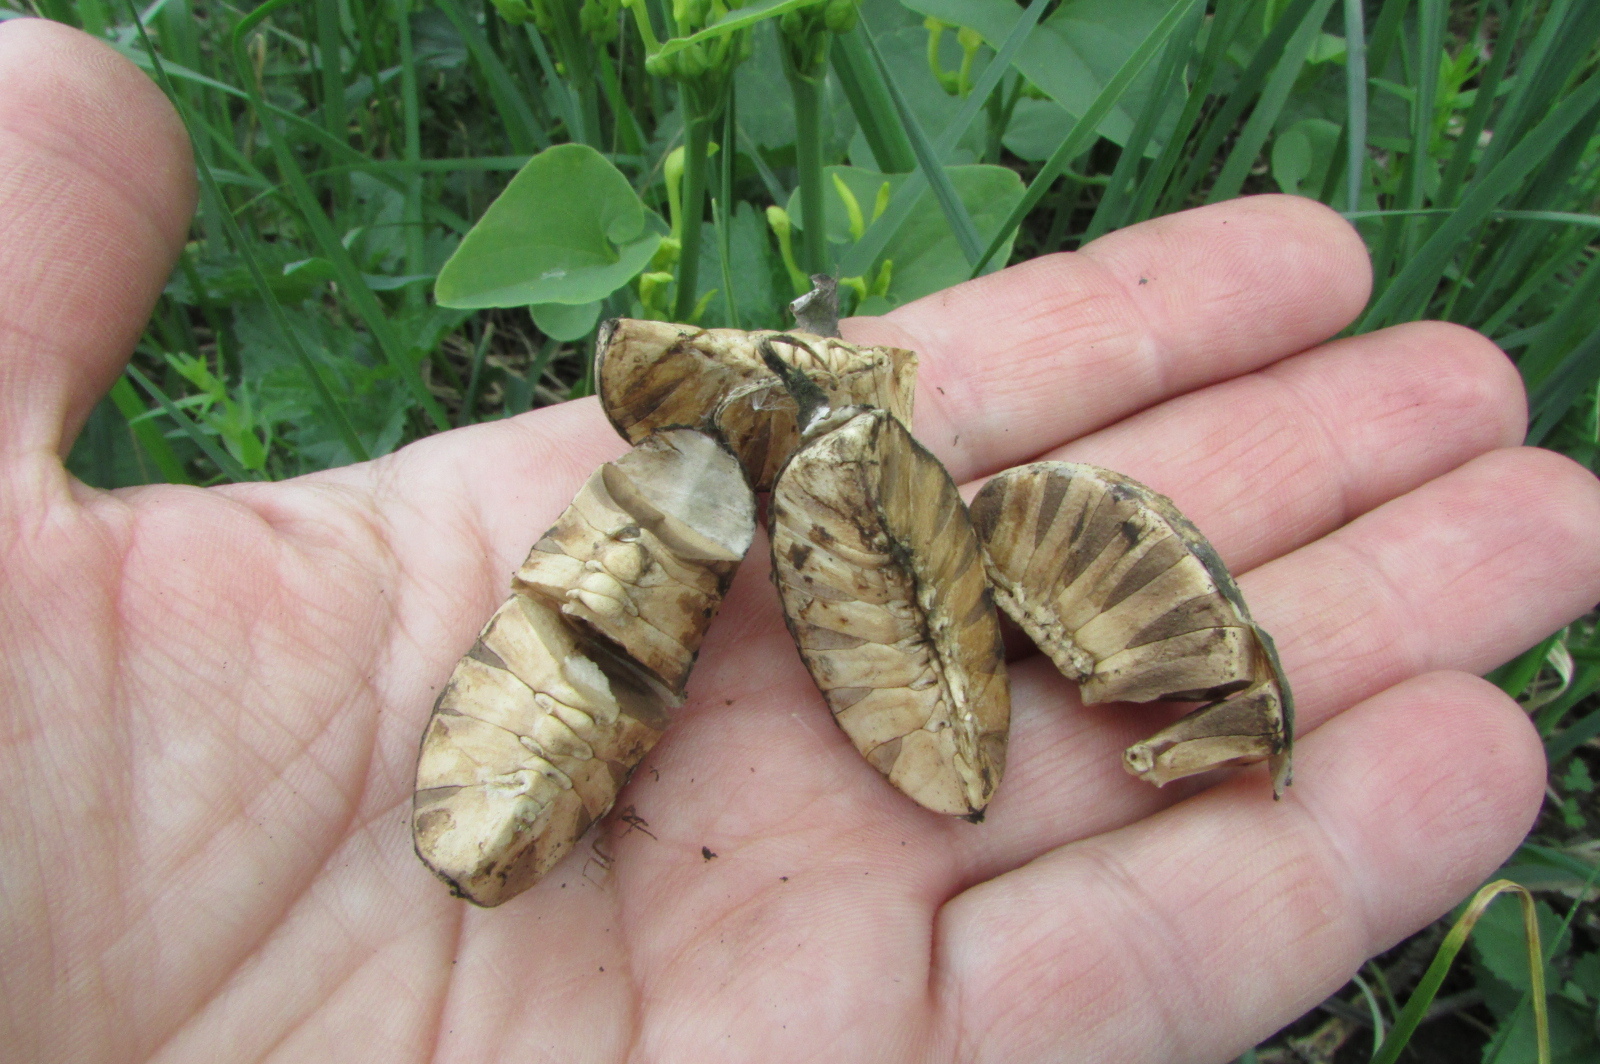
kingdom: Plantae
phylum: Tracheophyta
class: Magnoliopsida
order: Piperales
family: Aristolochiaceae
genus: Aristolochia
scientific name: Aristolochia clematitis
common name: Birthwort
